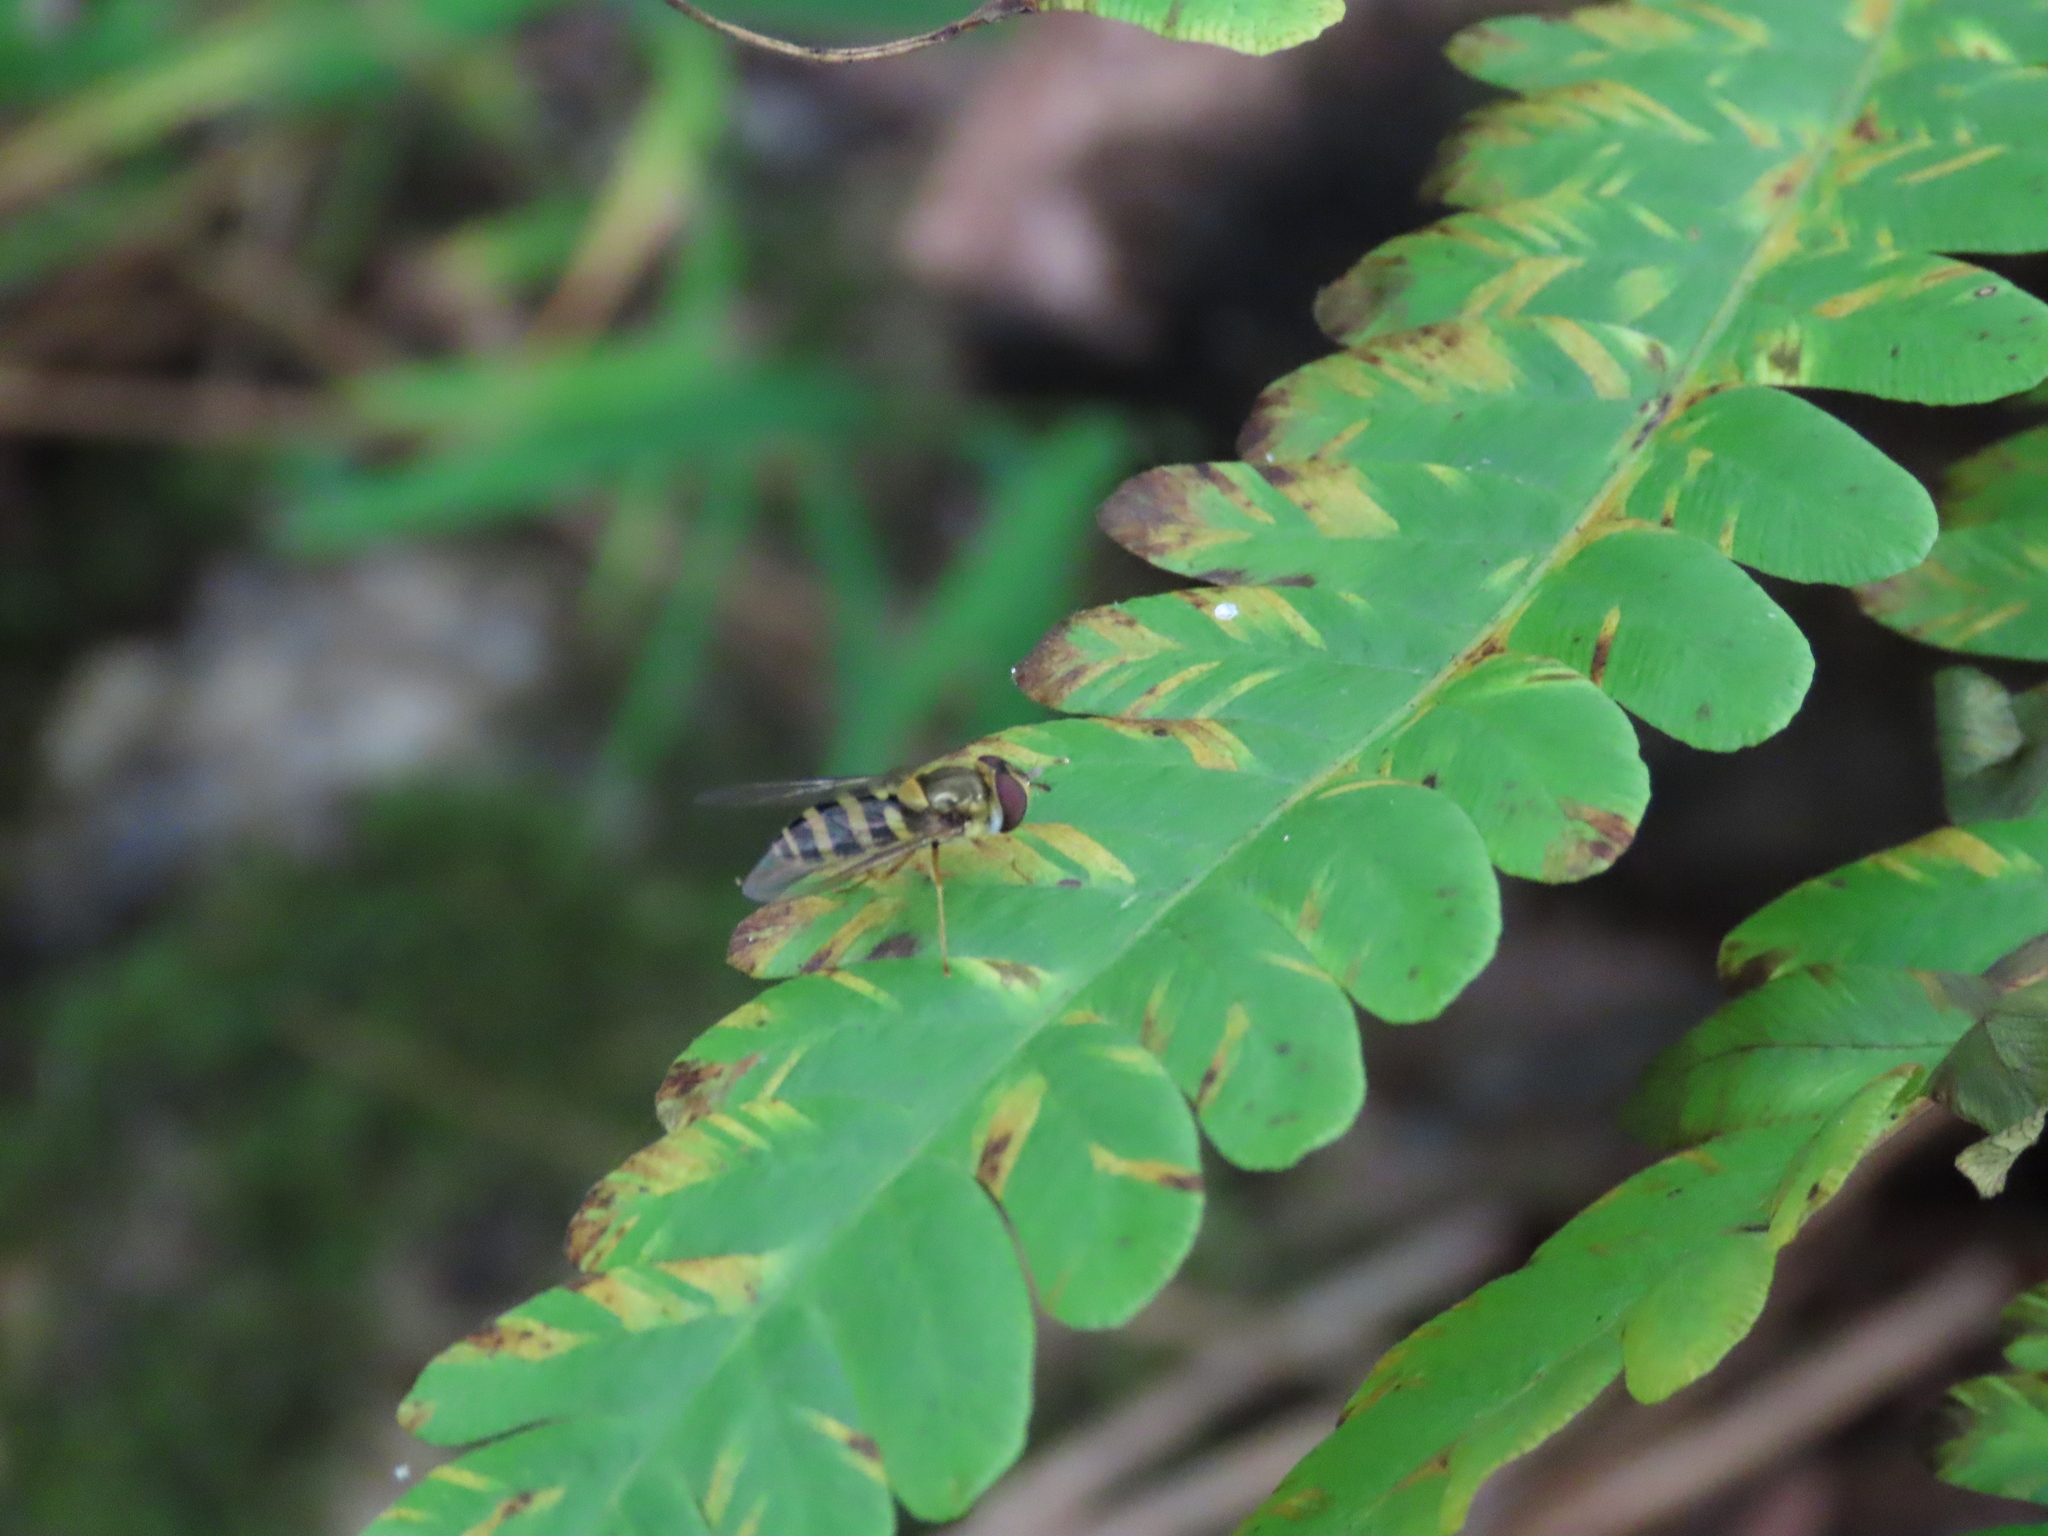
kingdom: Animalia
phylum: Arthropoda
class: Insecta
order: Diptera
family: Syrphidae
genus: Syrphus
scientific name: Syrphus
